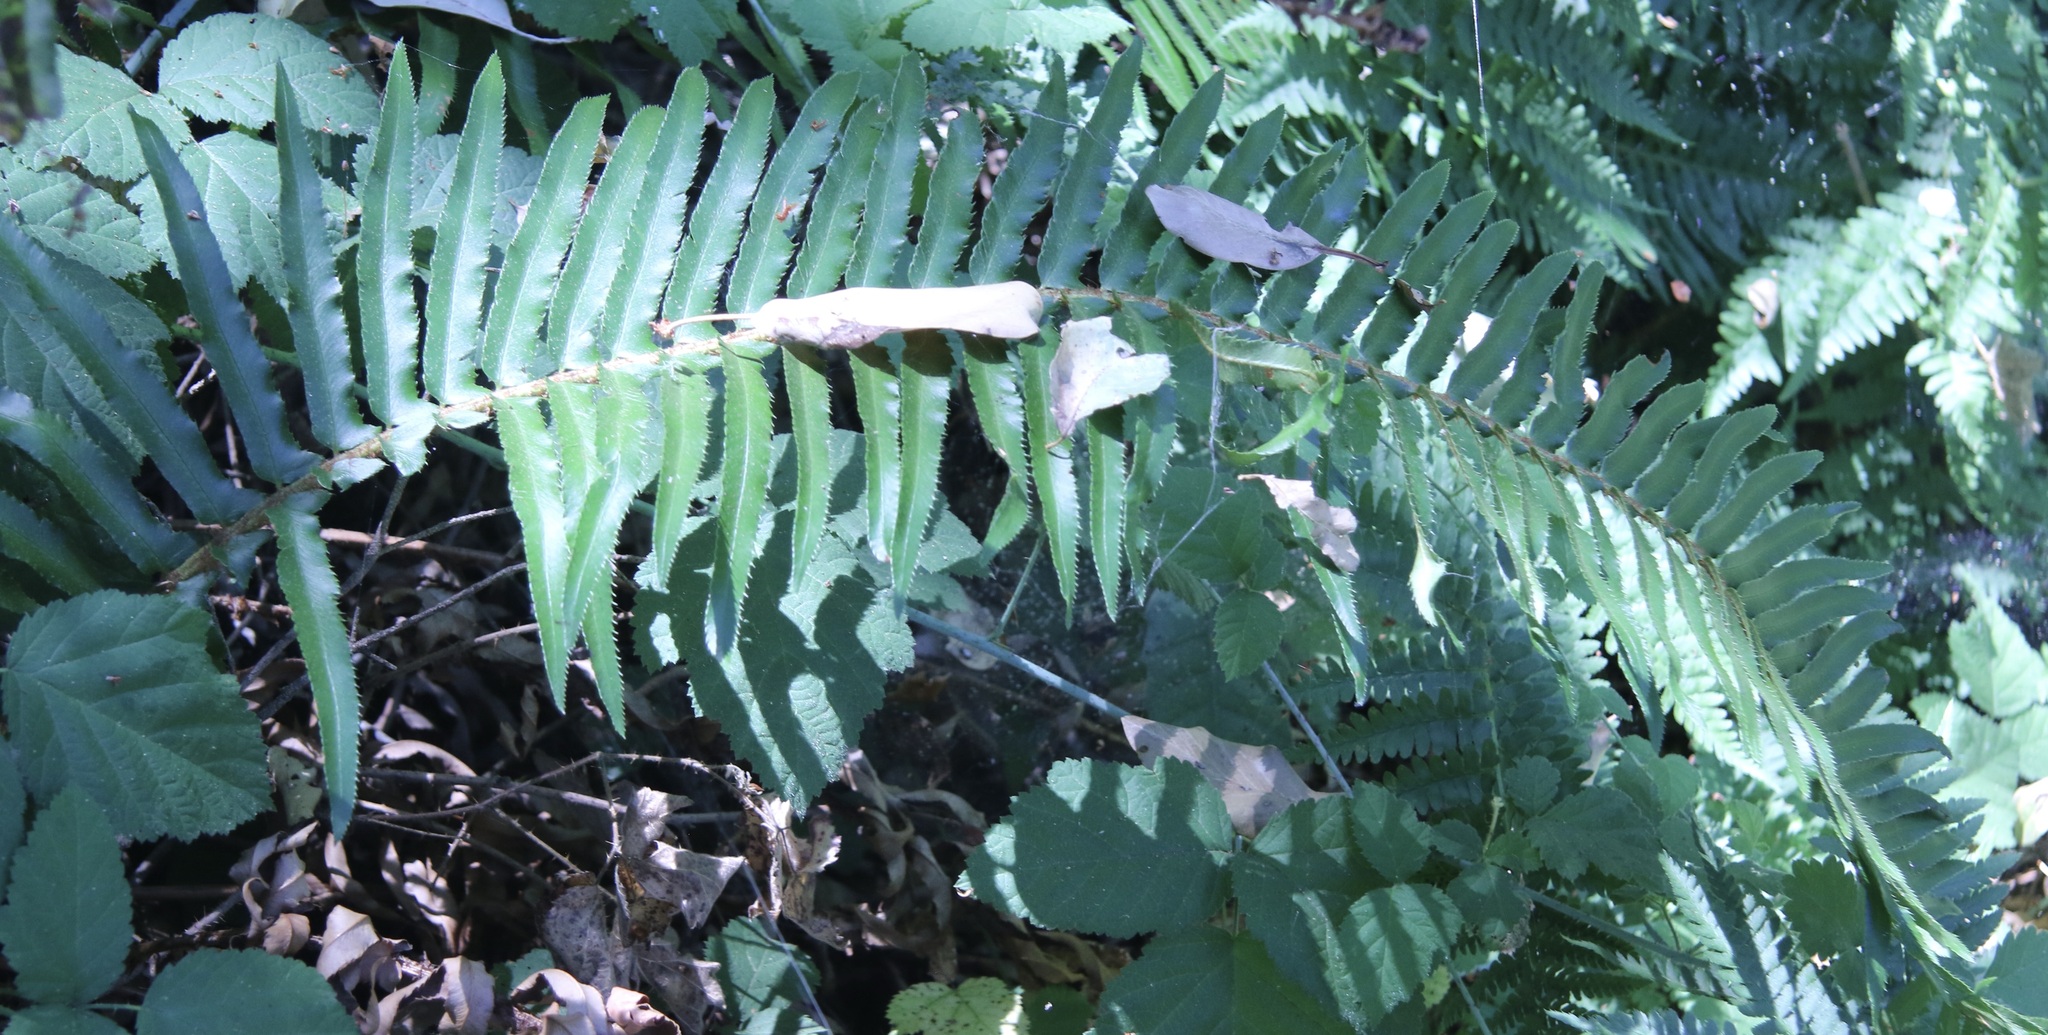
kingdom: Plantae
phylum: Tracheophyta
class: Polypodiopsida
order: Polypodiales
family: Dryopteridaceae
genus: Polystichum
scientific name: Polystichum munitum
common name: Western sword-fern
